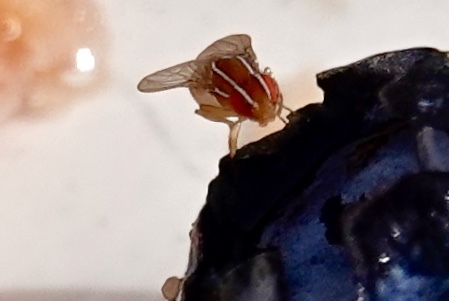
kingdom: Animalia
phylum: Arthropoda
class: Insecta
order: Diptera
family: Drosophilidae
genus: Zaprionus
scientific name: Zaprionus indianus
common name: African fig fly
